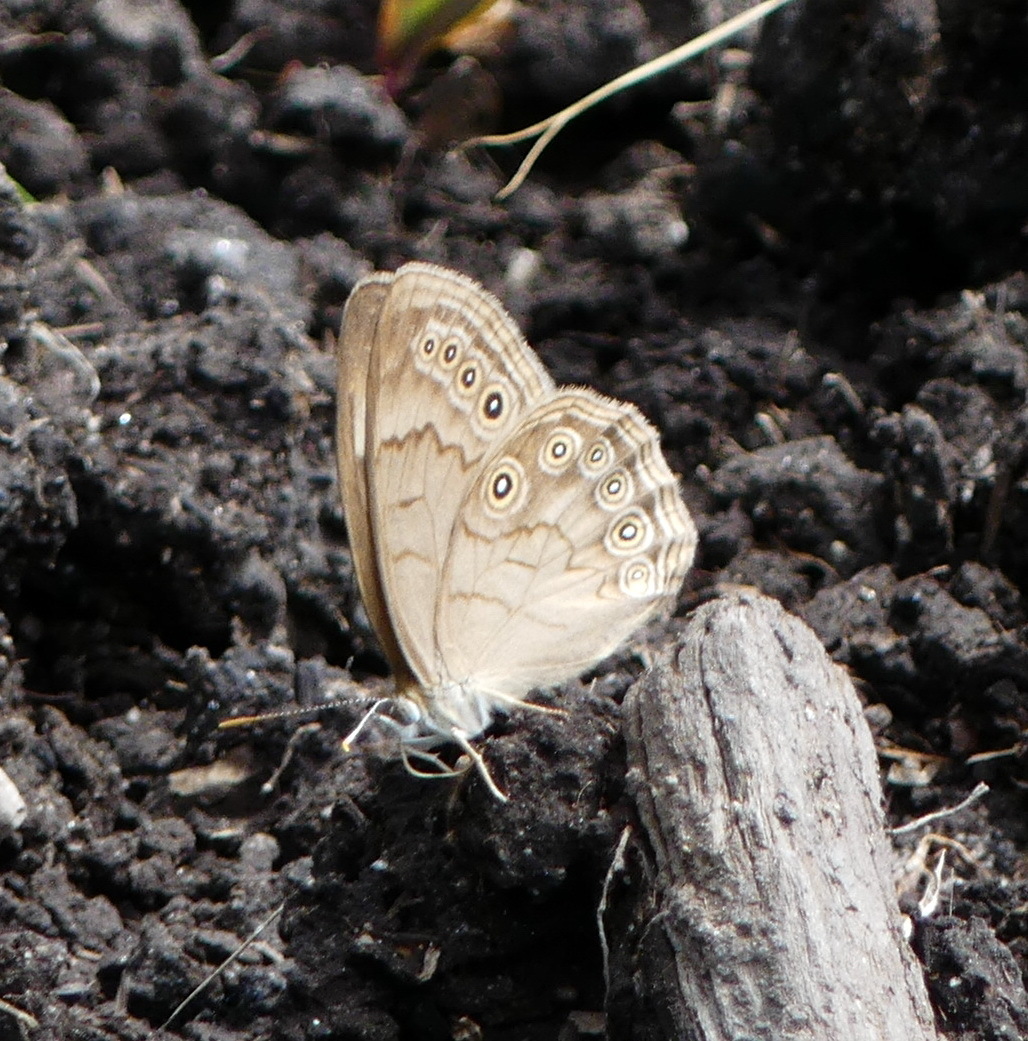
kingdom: Animalia
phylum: Arthropoda
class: Insecta
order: Lepidoptera
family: Nymphalidae
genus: Lethe
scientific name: Lethe eurydice
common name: Eyed brown
